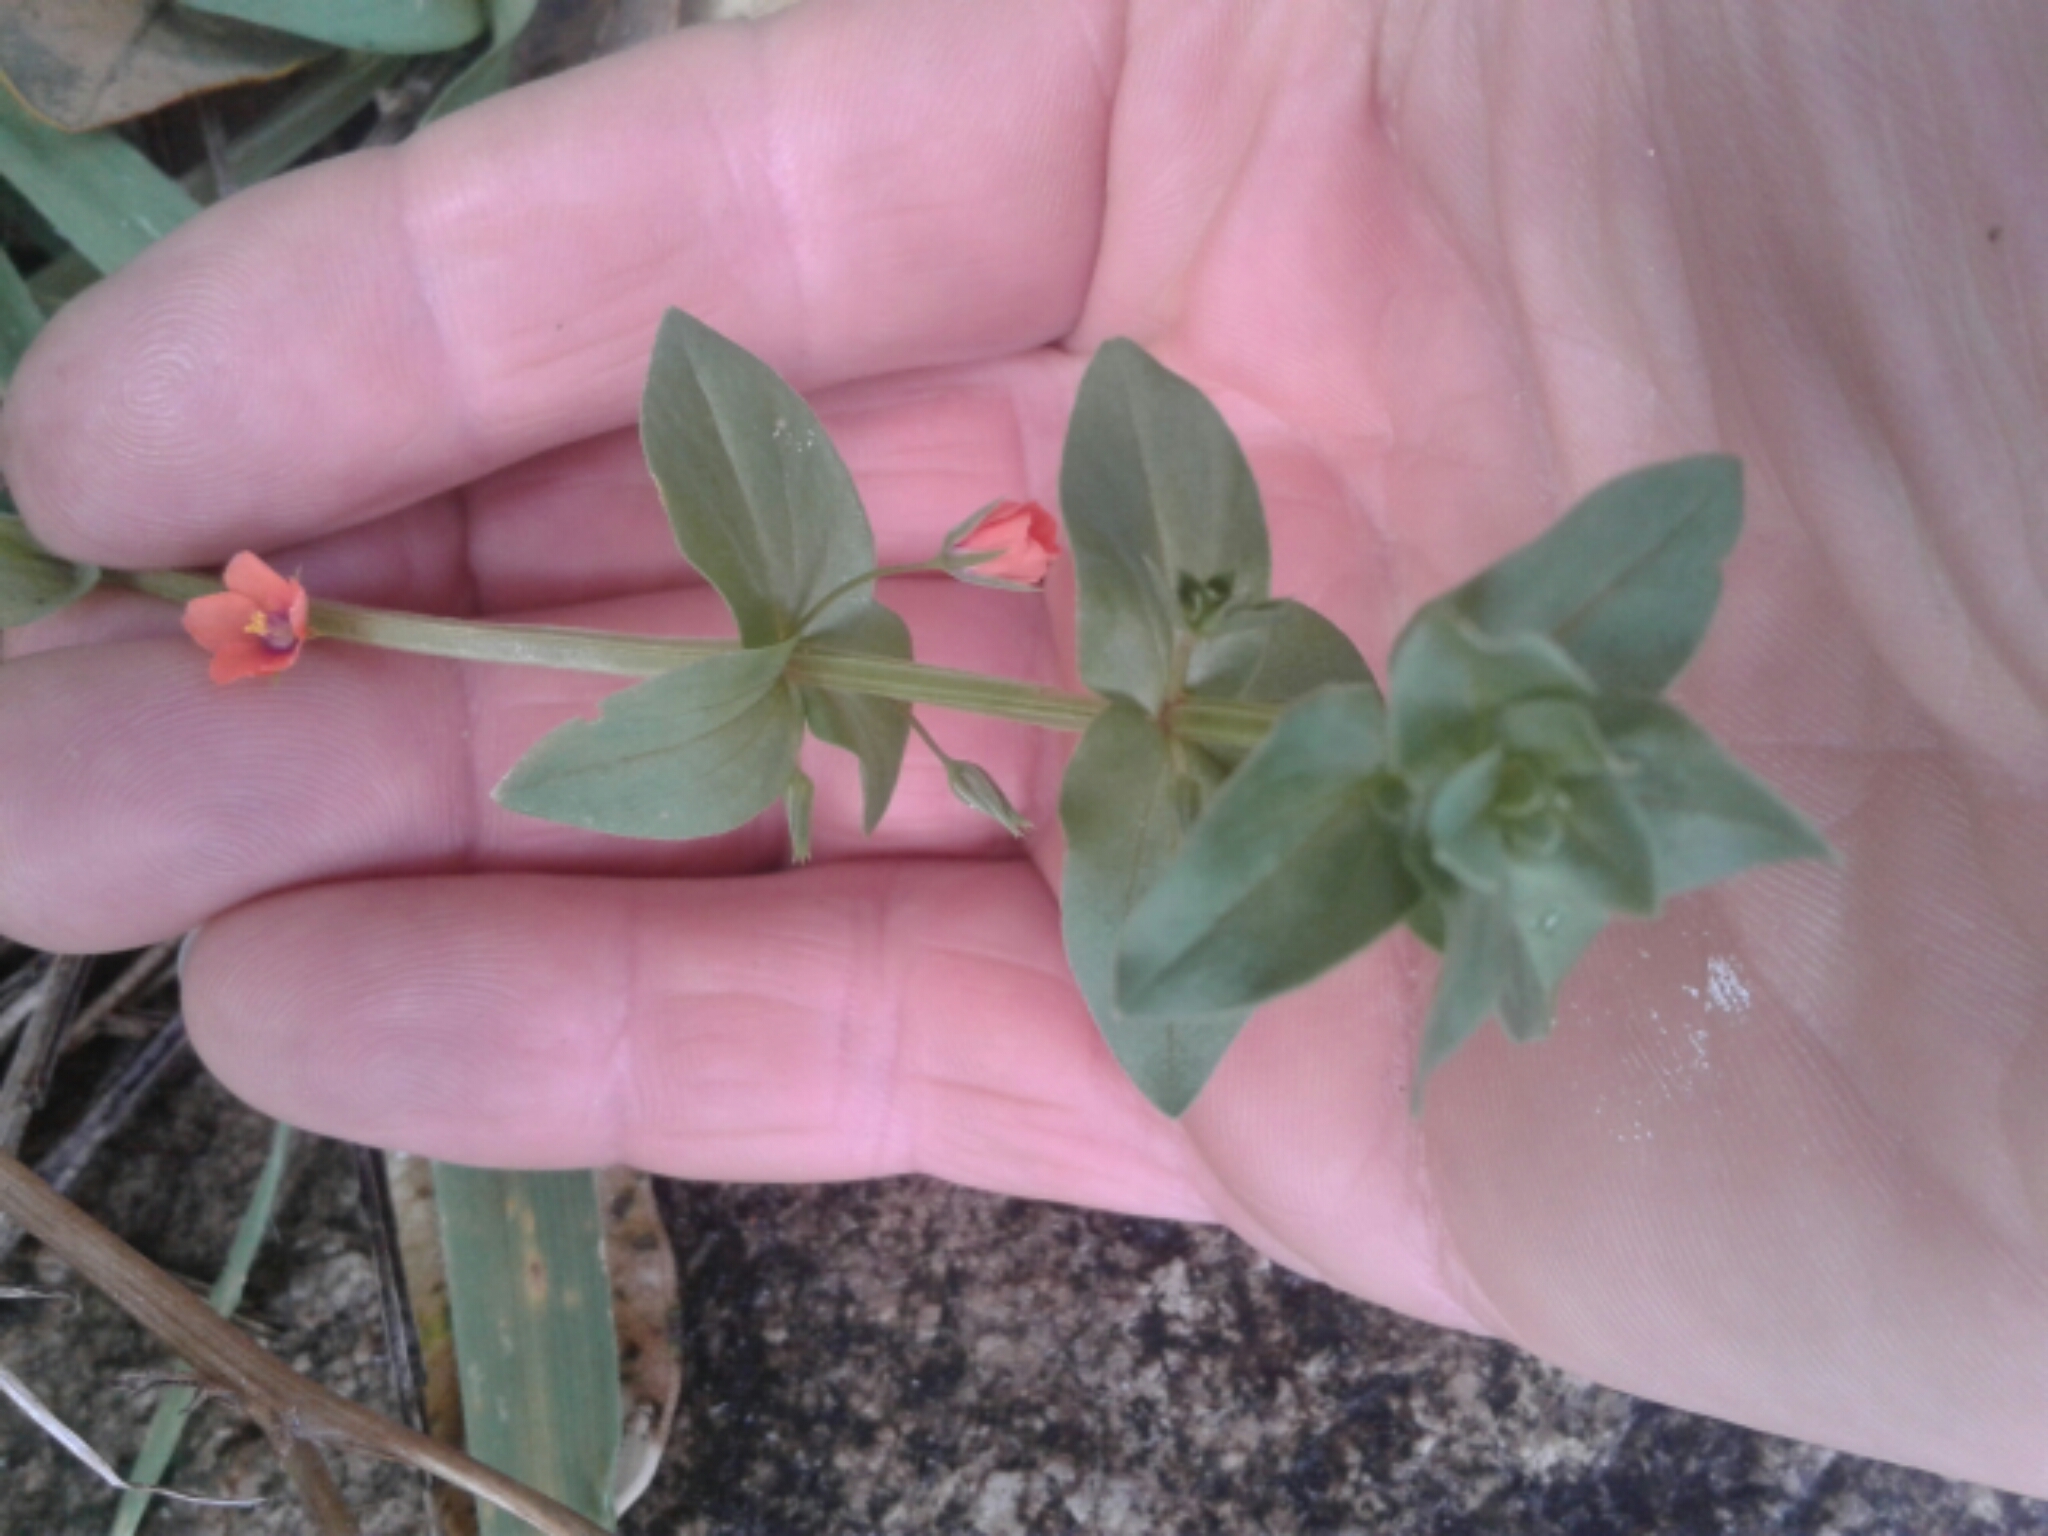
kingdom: Plantae
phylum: Tracheophyta
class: Magnoliopsida
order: Ericales
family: Primulaceae
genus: Lysimachia
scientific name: Lysimachia arvensis
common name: Scarlet pimpernel
